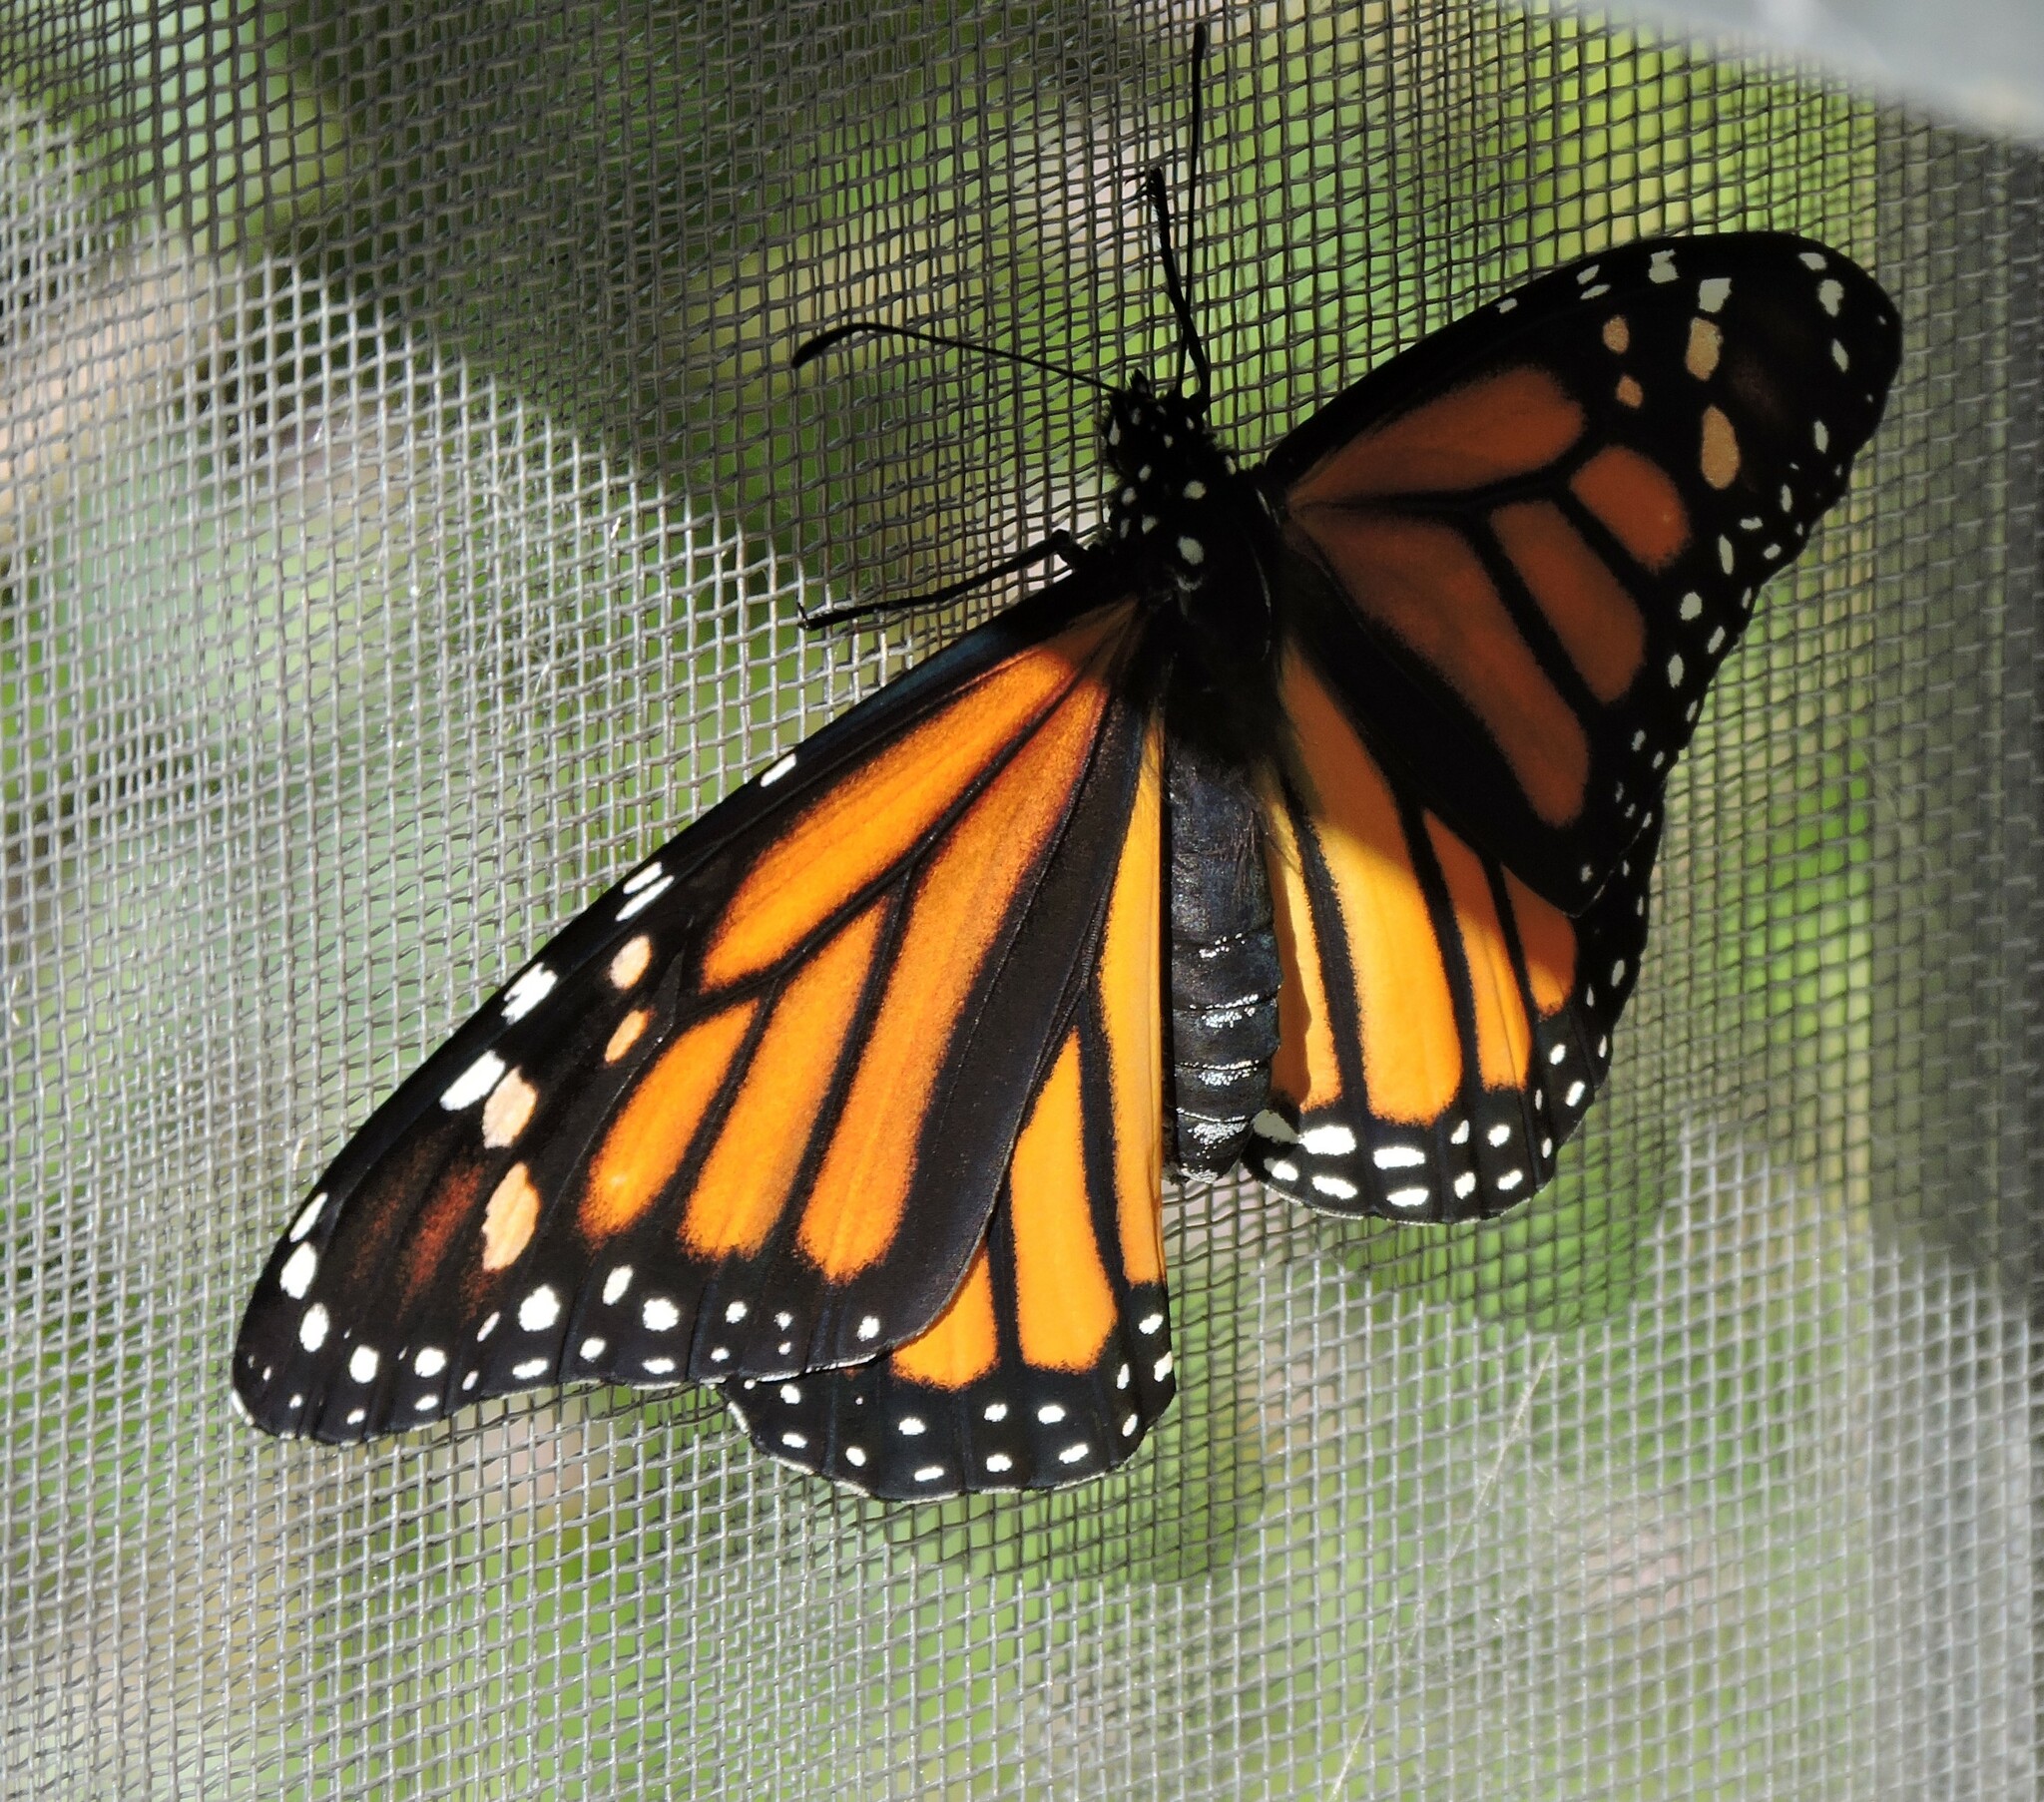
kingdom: Animalia
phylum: Arthropoda
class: Insecta
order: Lepidoptera
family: Nymphalidae
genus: Danaus
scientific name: Danaus plexippus
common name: Monarch
